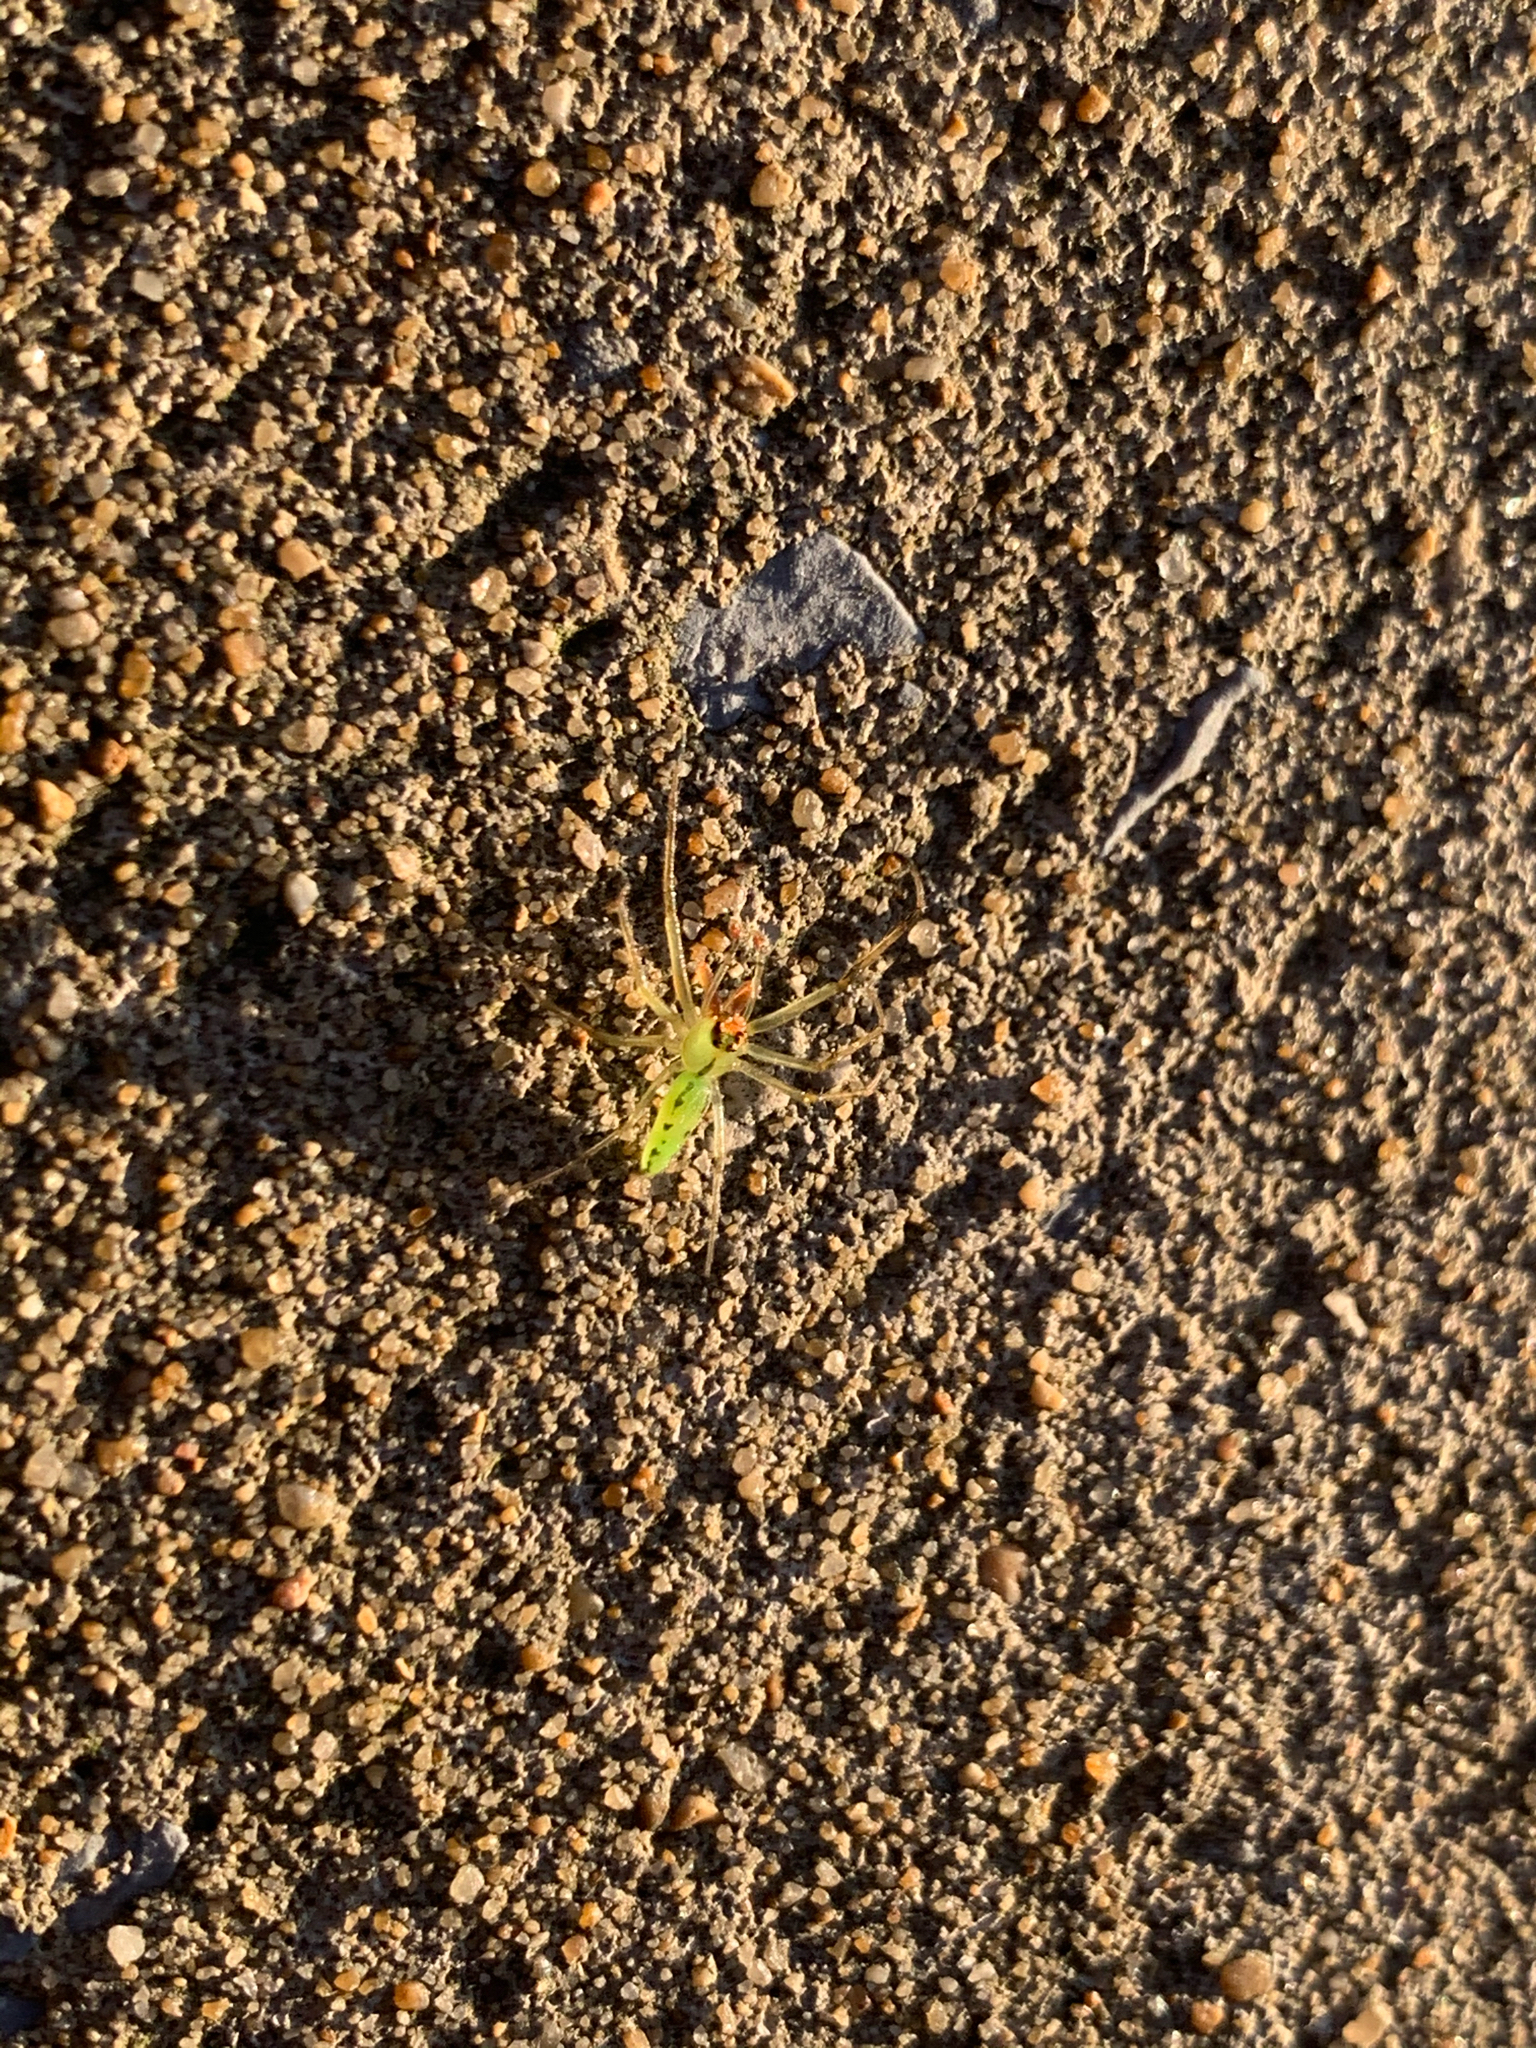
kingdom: Animalia
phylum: Arthropoda
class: Arachnida
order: Araneae
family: Salticidae
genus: Lyssomanes
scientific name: Lyssomanes viridis
